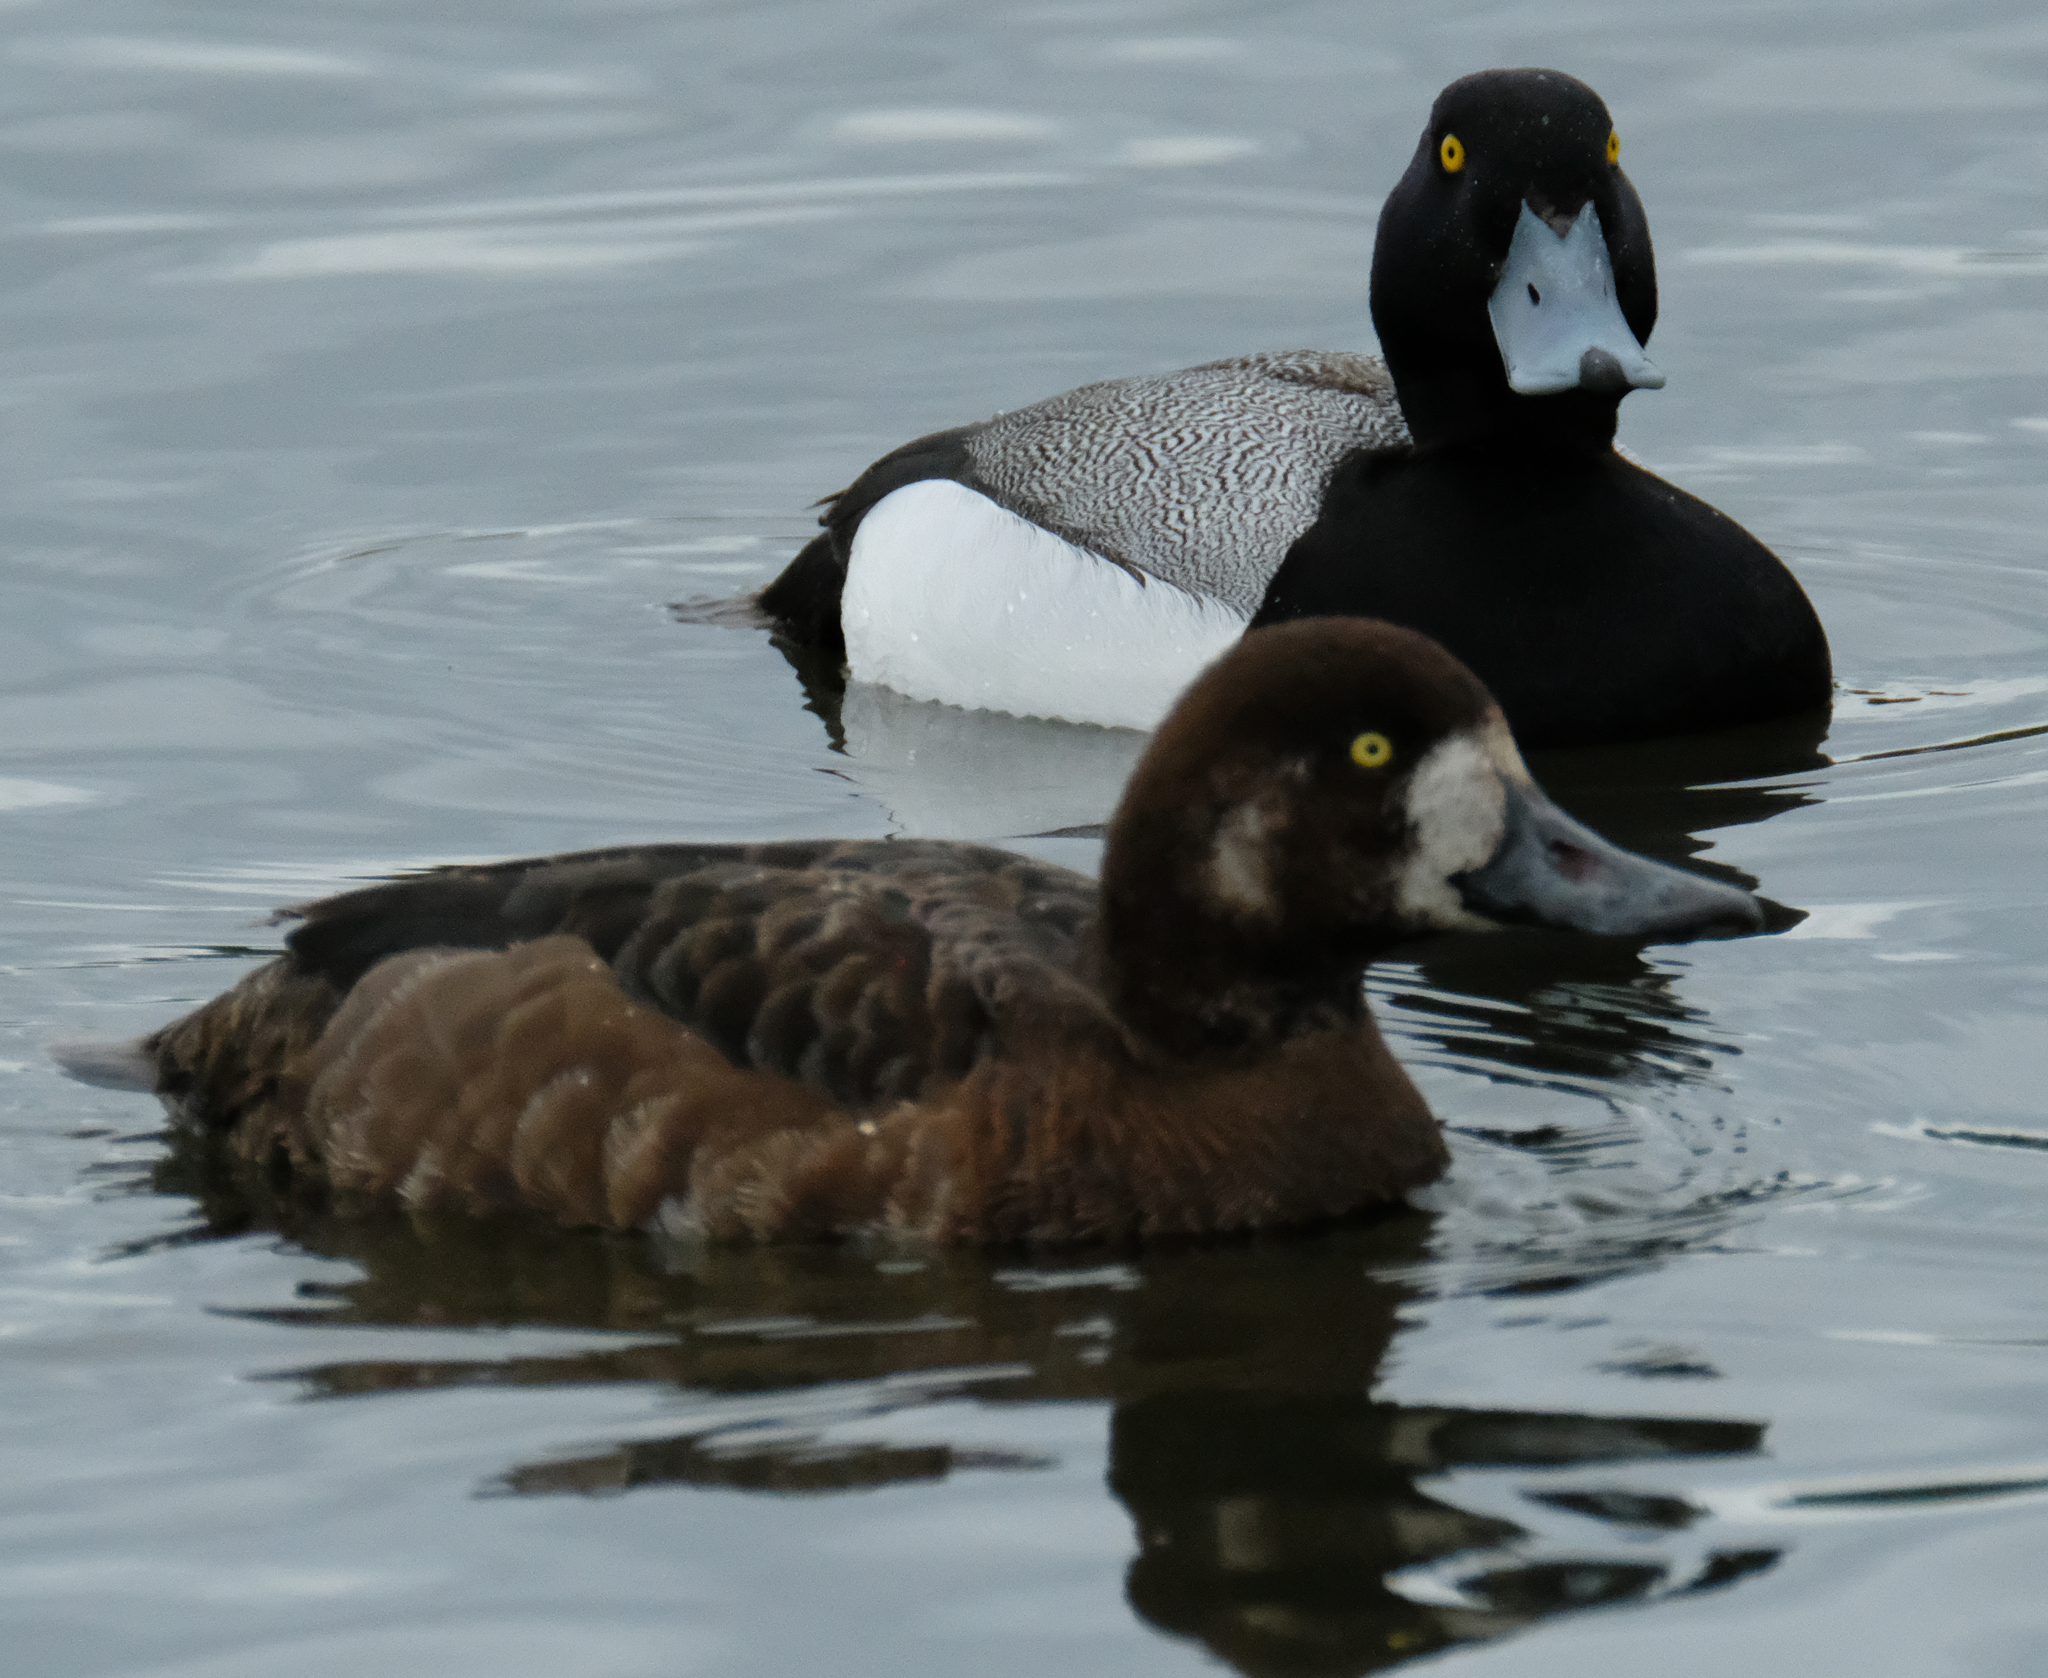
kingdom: Animalia
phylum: Chordata
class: Aves
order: Anseriformes
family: Anatidae
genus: Aythya
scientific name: Aythya marila
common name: Greater scaup
